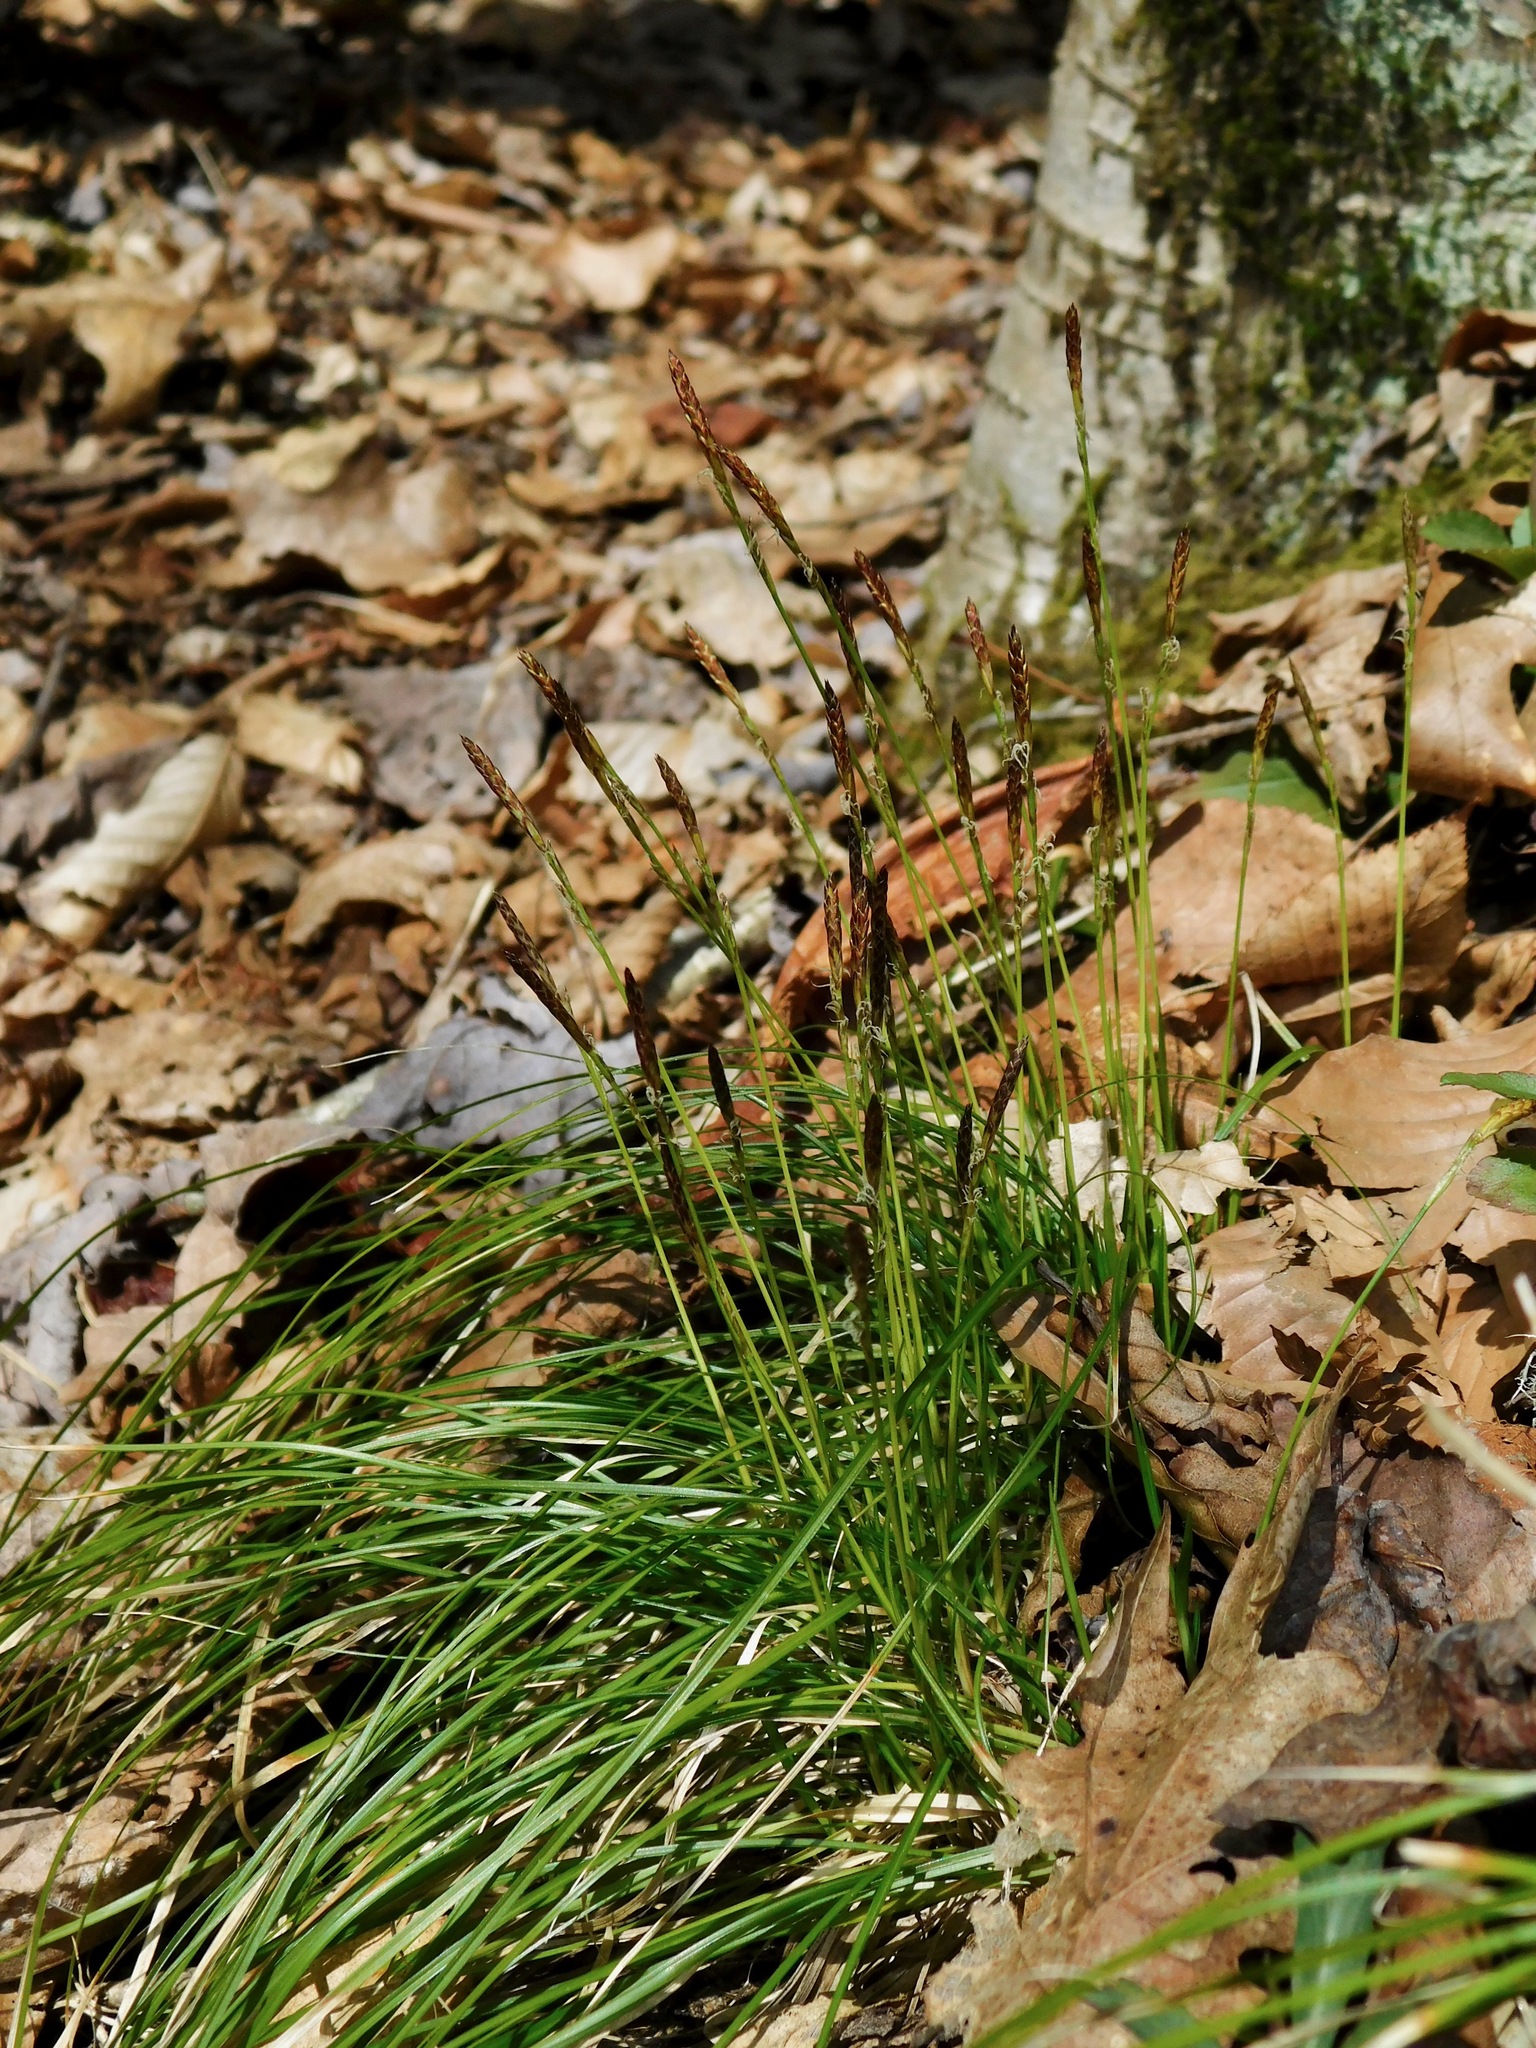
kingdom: Plantae
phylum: Tracheophyta
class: Liliopsida
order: Poales
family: Cyperaceae
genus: Carex
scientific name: Carex pensylvanica
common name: Common oak sedge
